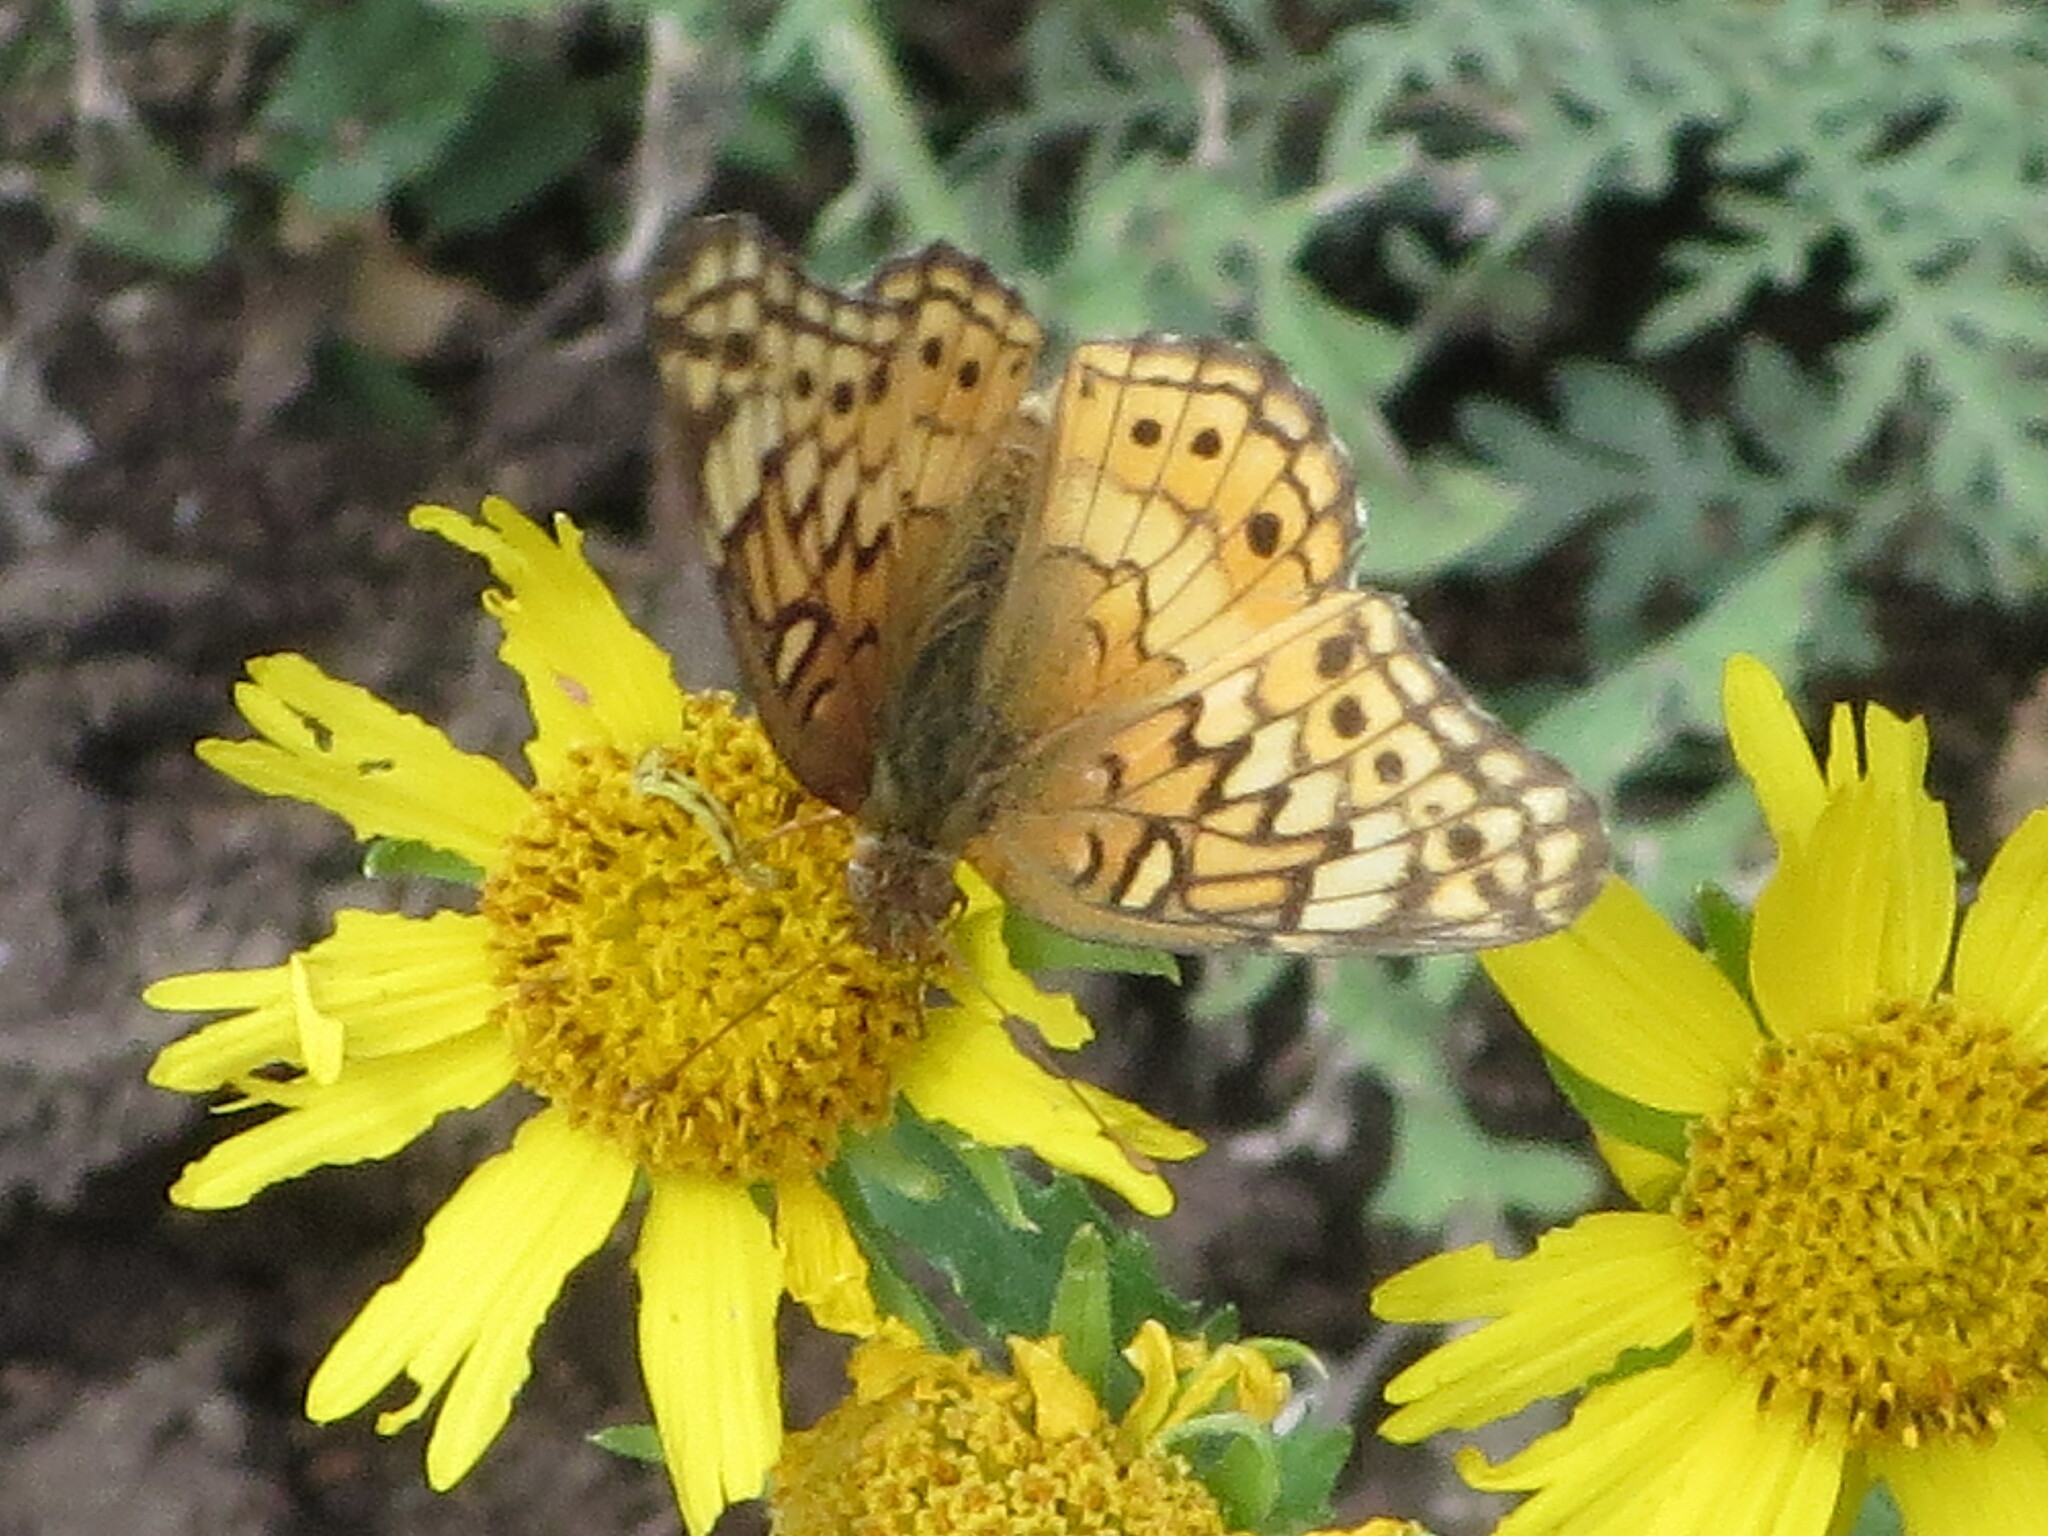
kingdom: Animalia
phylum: Arthropoda
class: Insecta
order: Lepidoptera
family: Nymphalidae
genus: Euptoieta
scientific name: Euptoieta claudia
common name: Variegated fritillary
